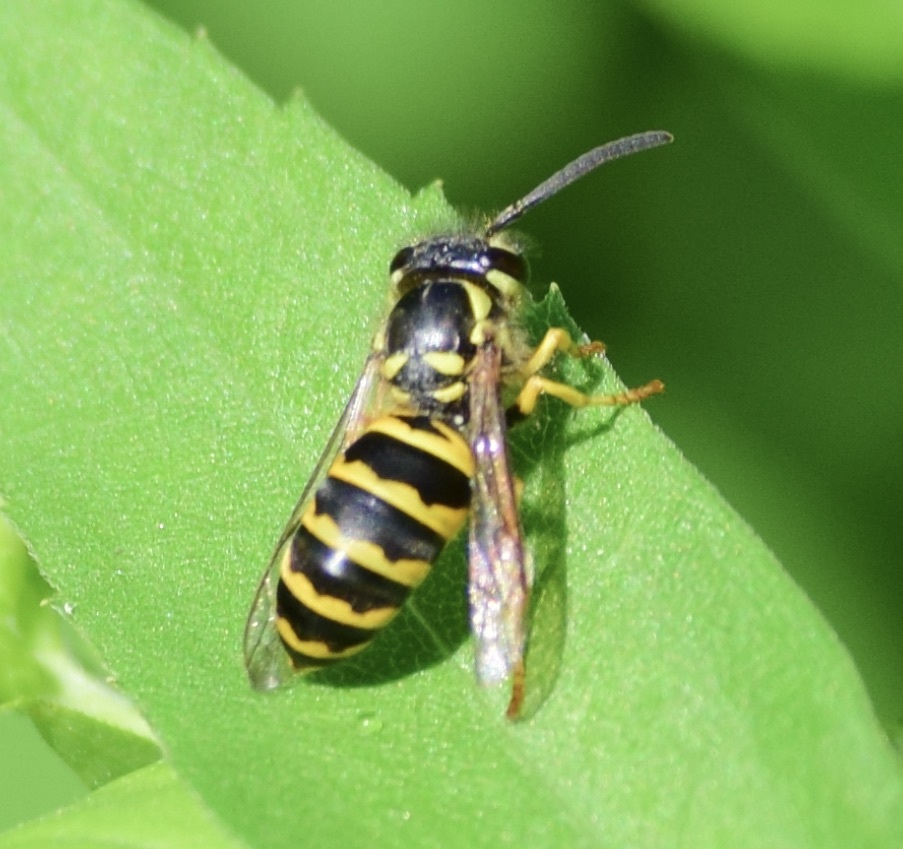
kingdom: Animalia
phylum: Arthropoda
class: Insecta
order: Hymenoptera
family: Vespidae
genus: Vespula
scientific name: Vespula maculifrons
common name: Eastern yellowjacket
